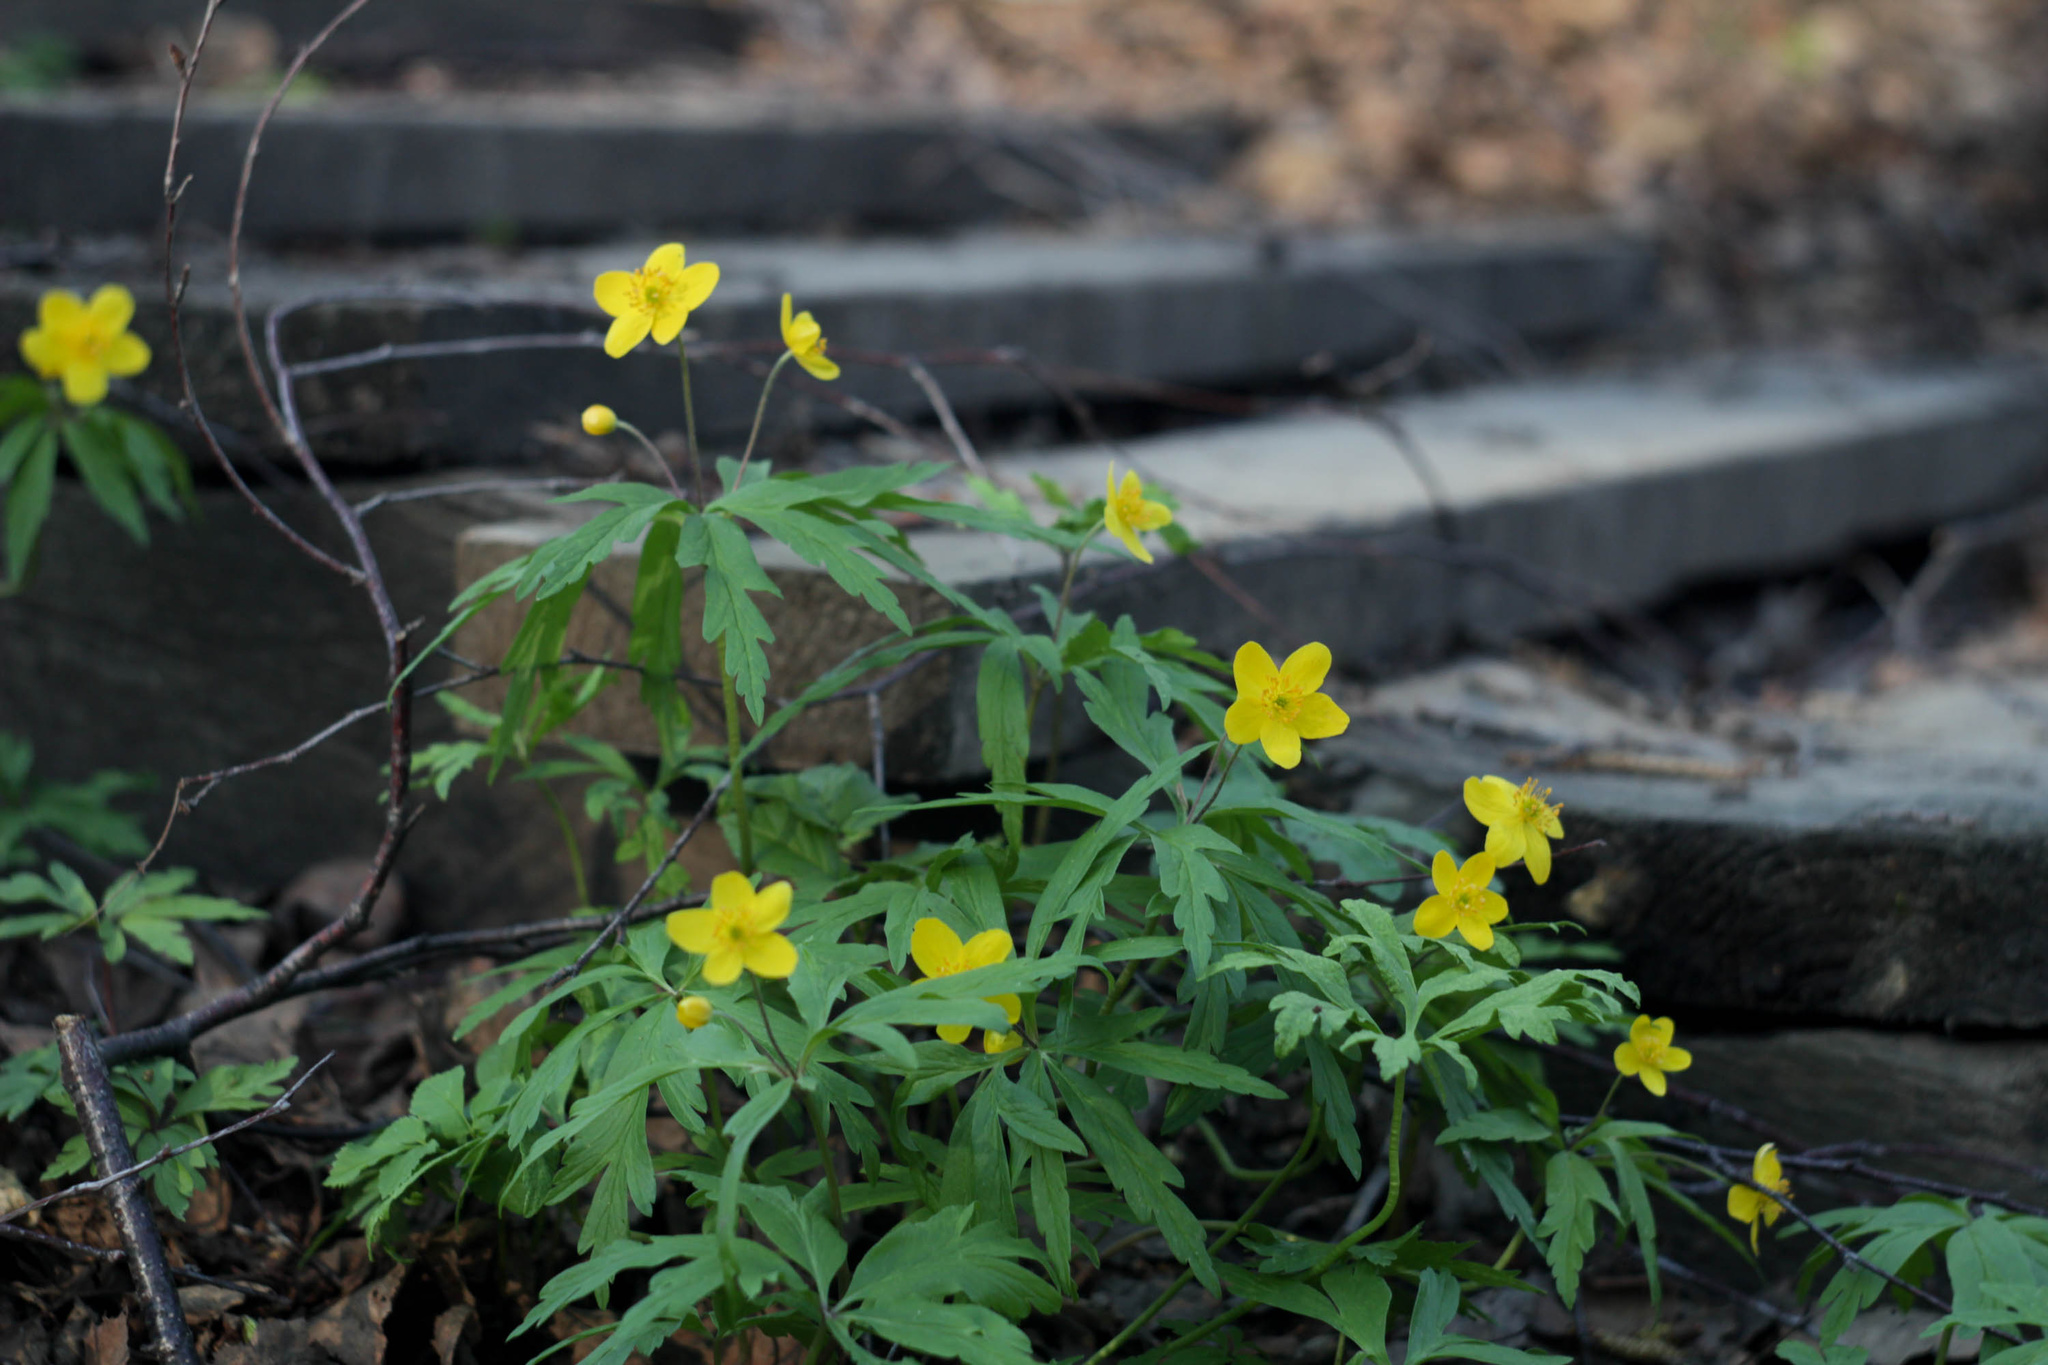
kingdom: Plantae
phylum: Tracheophyta
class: Magnoliopsida
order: Ranunculales
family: Ranunculaceae
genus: Anemone
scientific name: Anemone ranunculoides
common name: Yellow anemone
